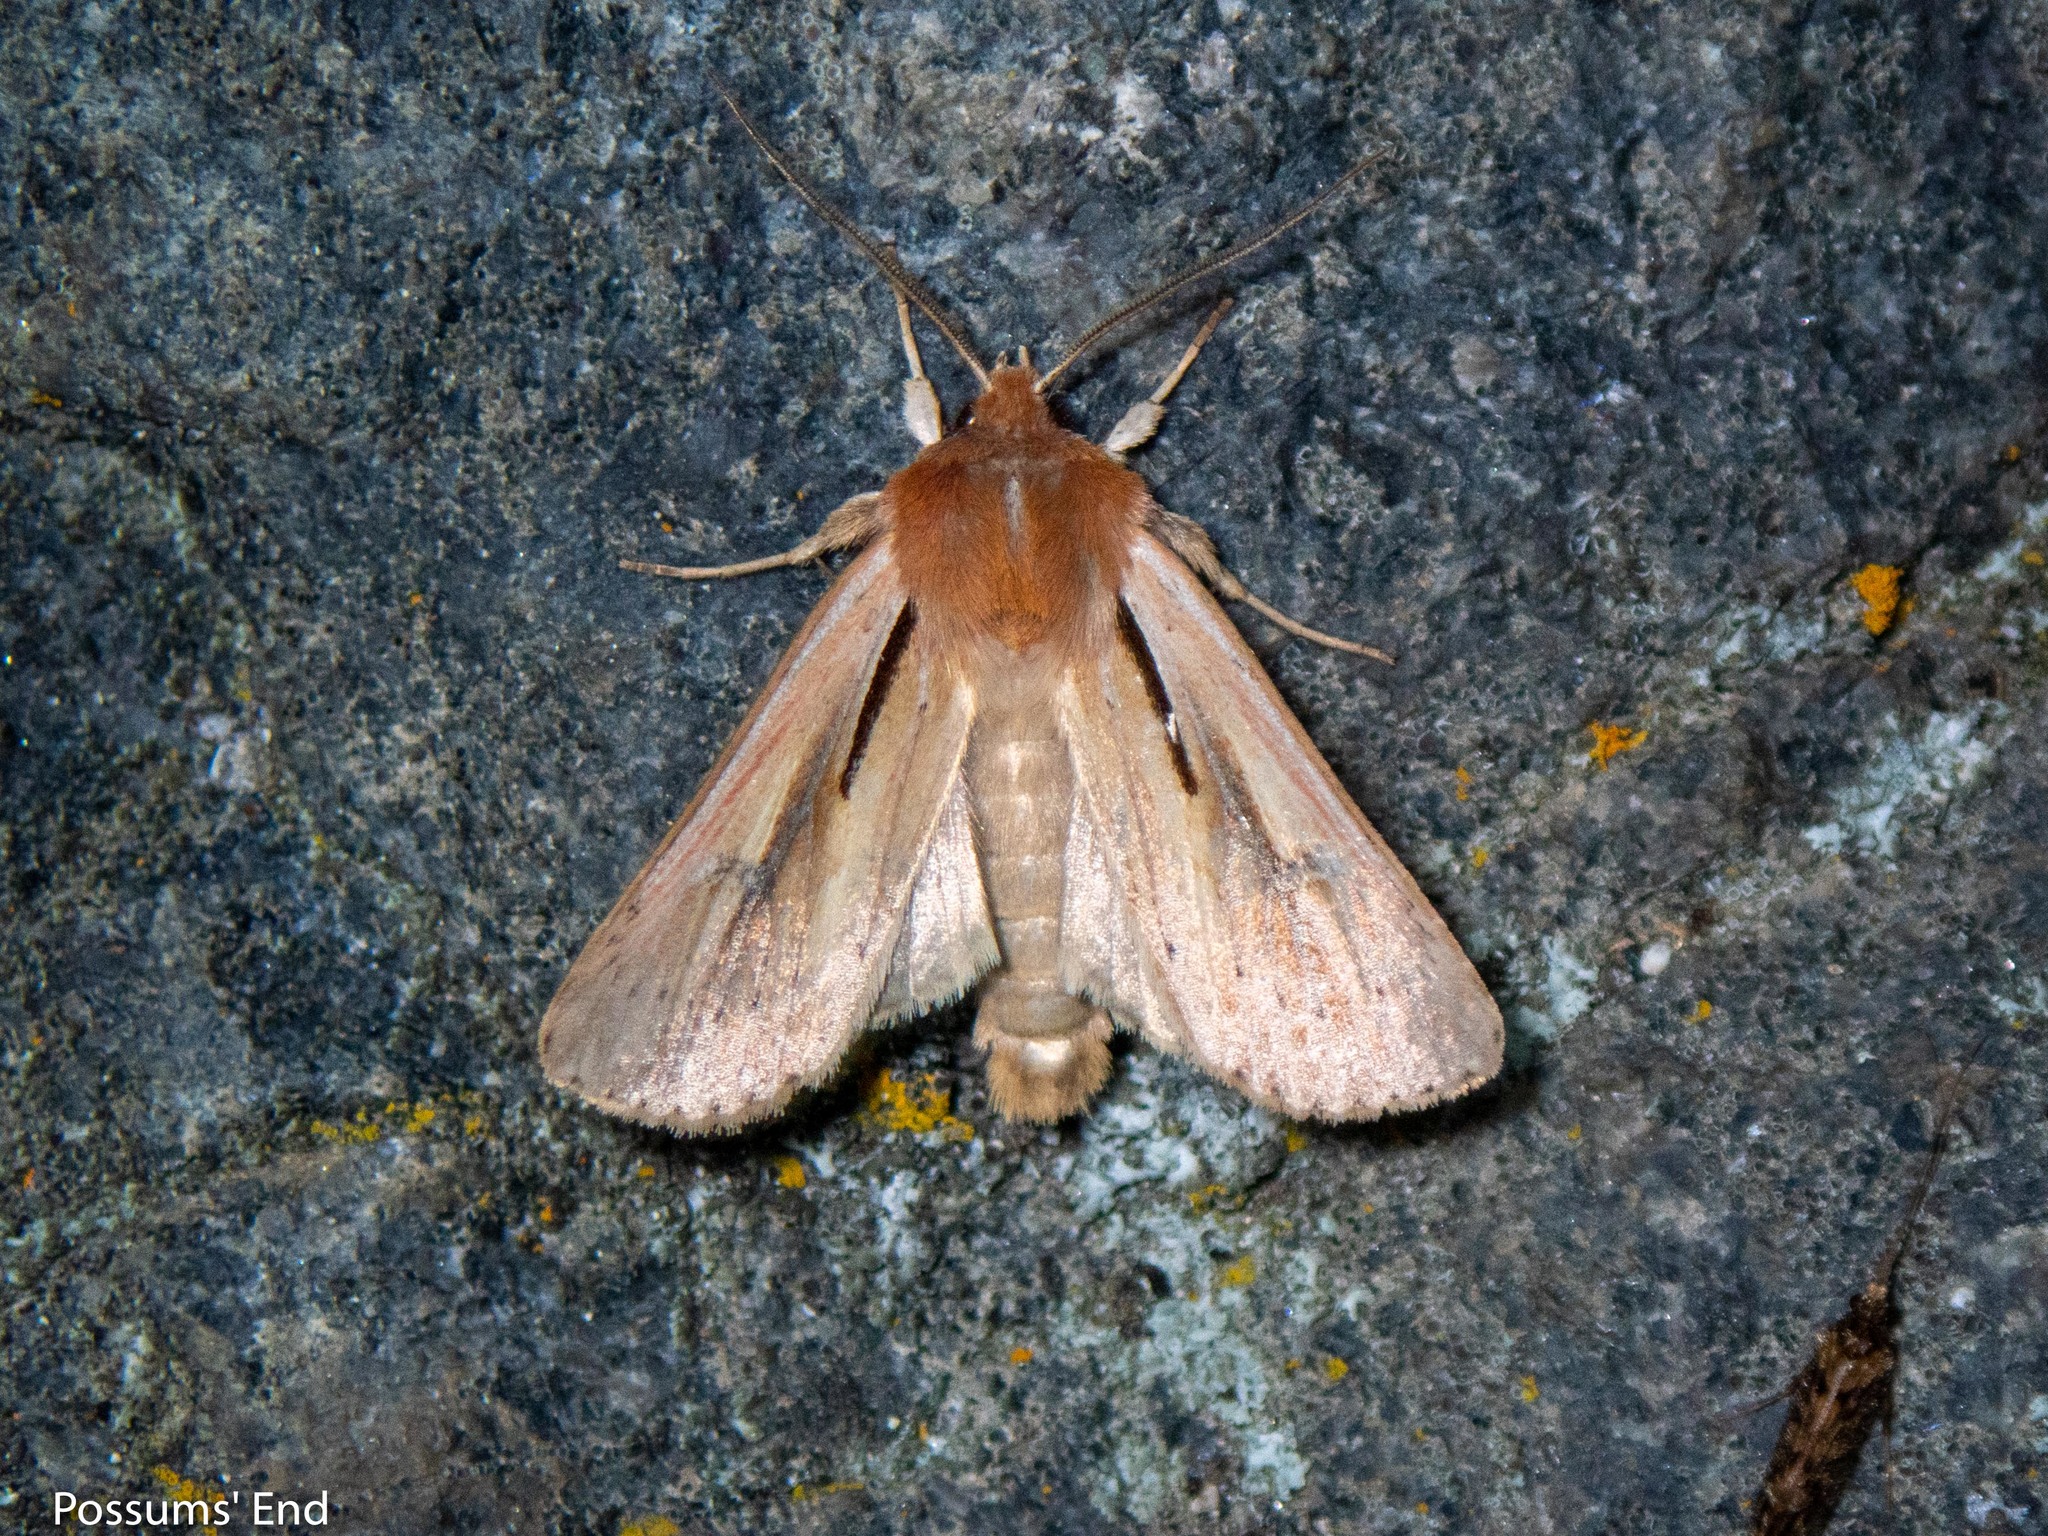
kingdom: Animalia
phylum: Arthropoda
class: Insecta
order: Lepidoptera
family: Noctuidae
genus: Ichneutica
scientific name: Ichneutica propria
